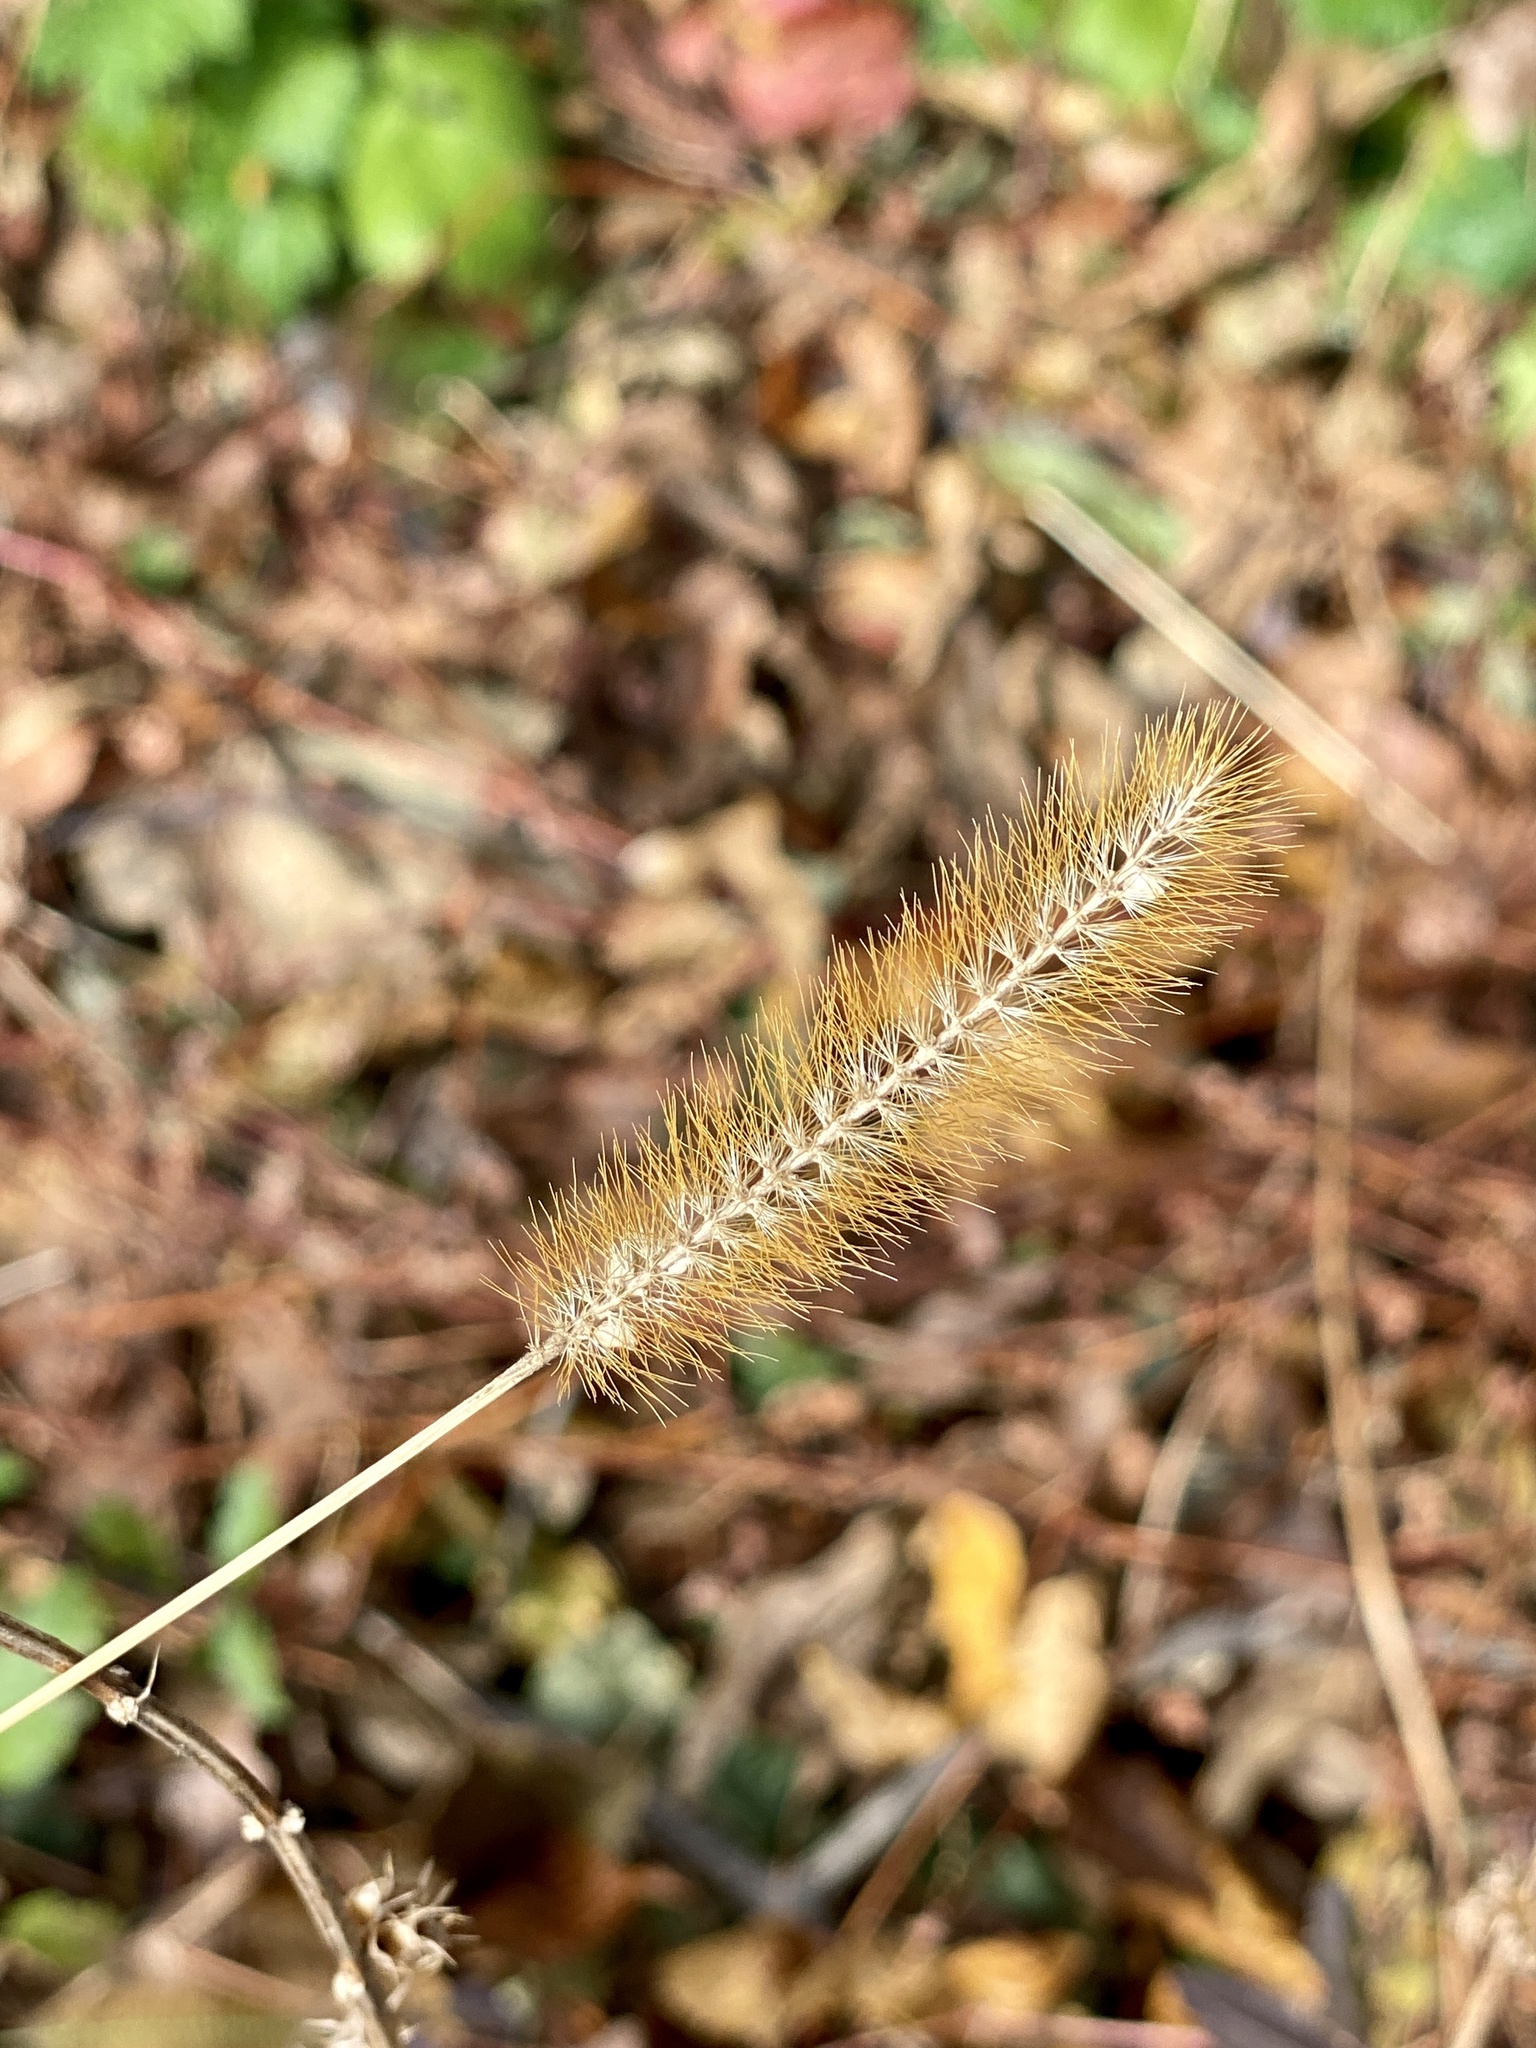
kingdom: Plantae
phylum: Tracheophyta
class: Liliopsida
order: Poales
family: Poaceae
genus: Setaria
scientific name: Setaria pumila
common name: Yellow bristle-grass
